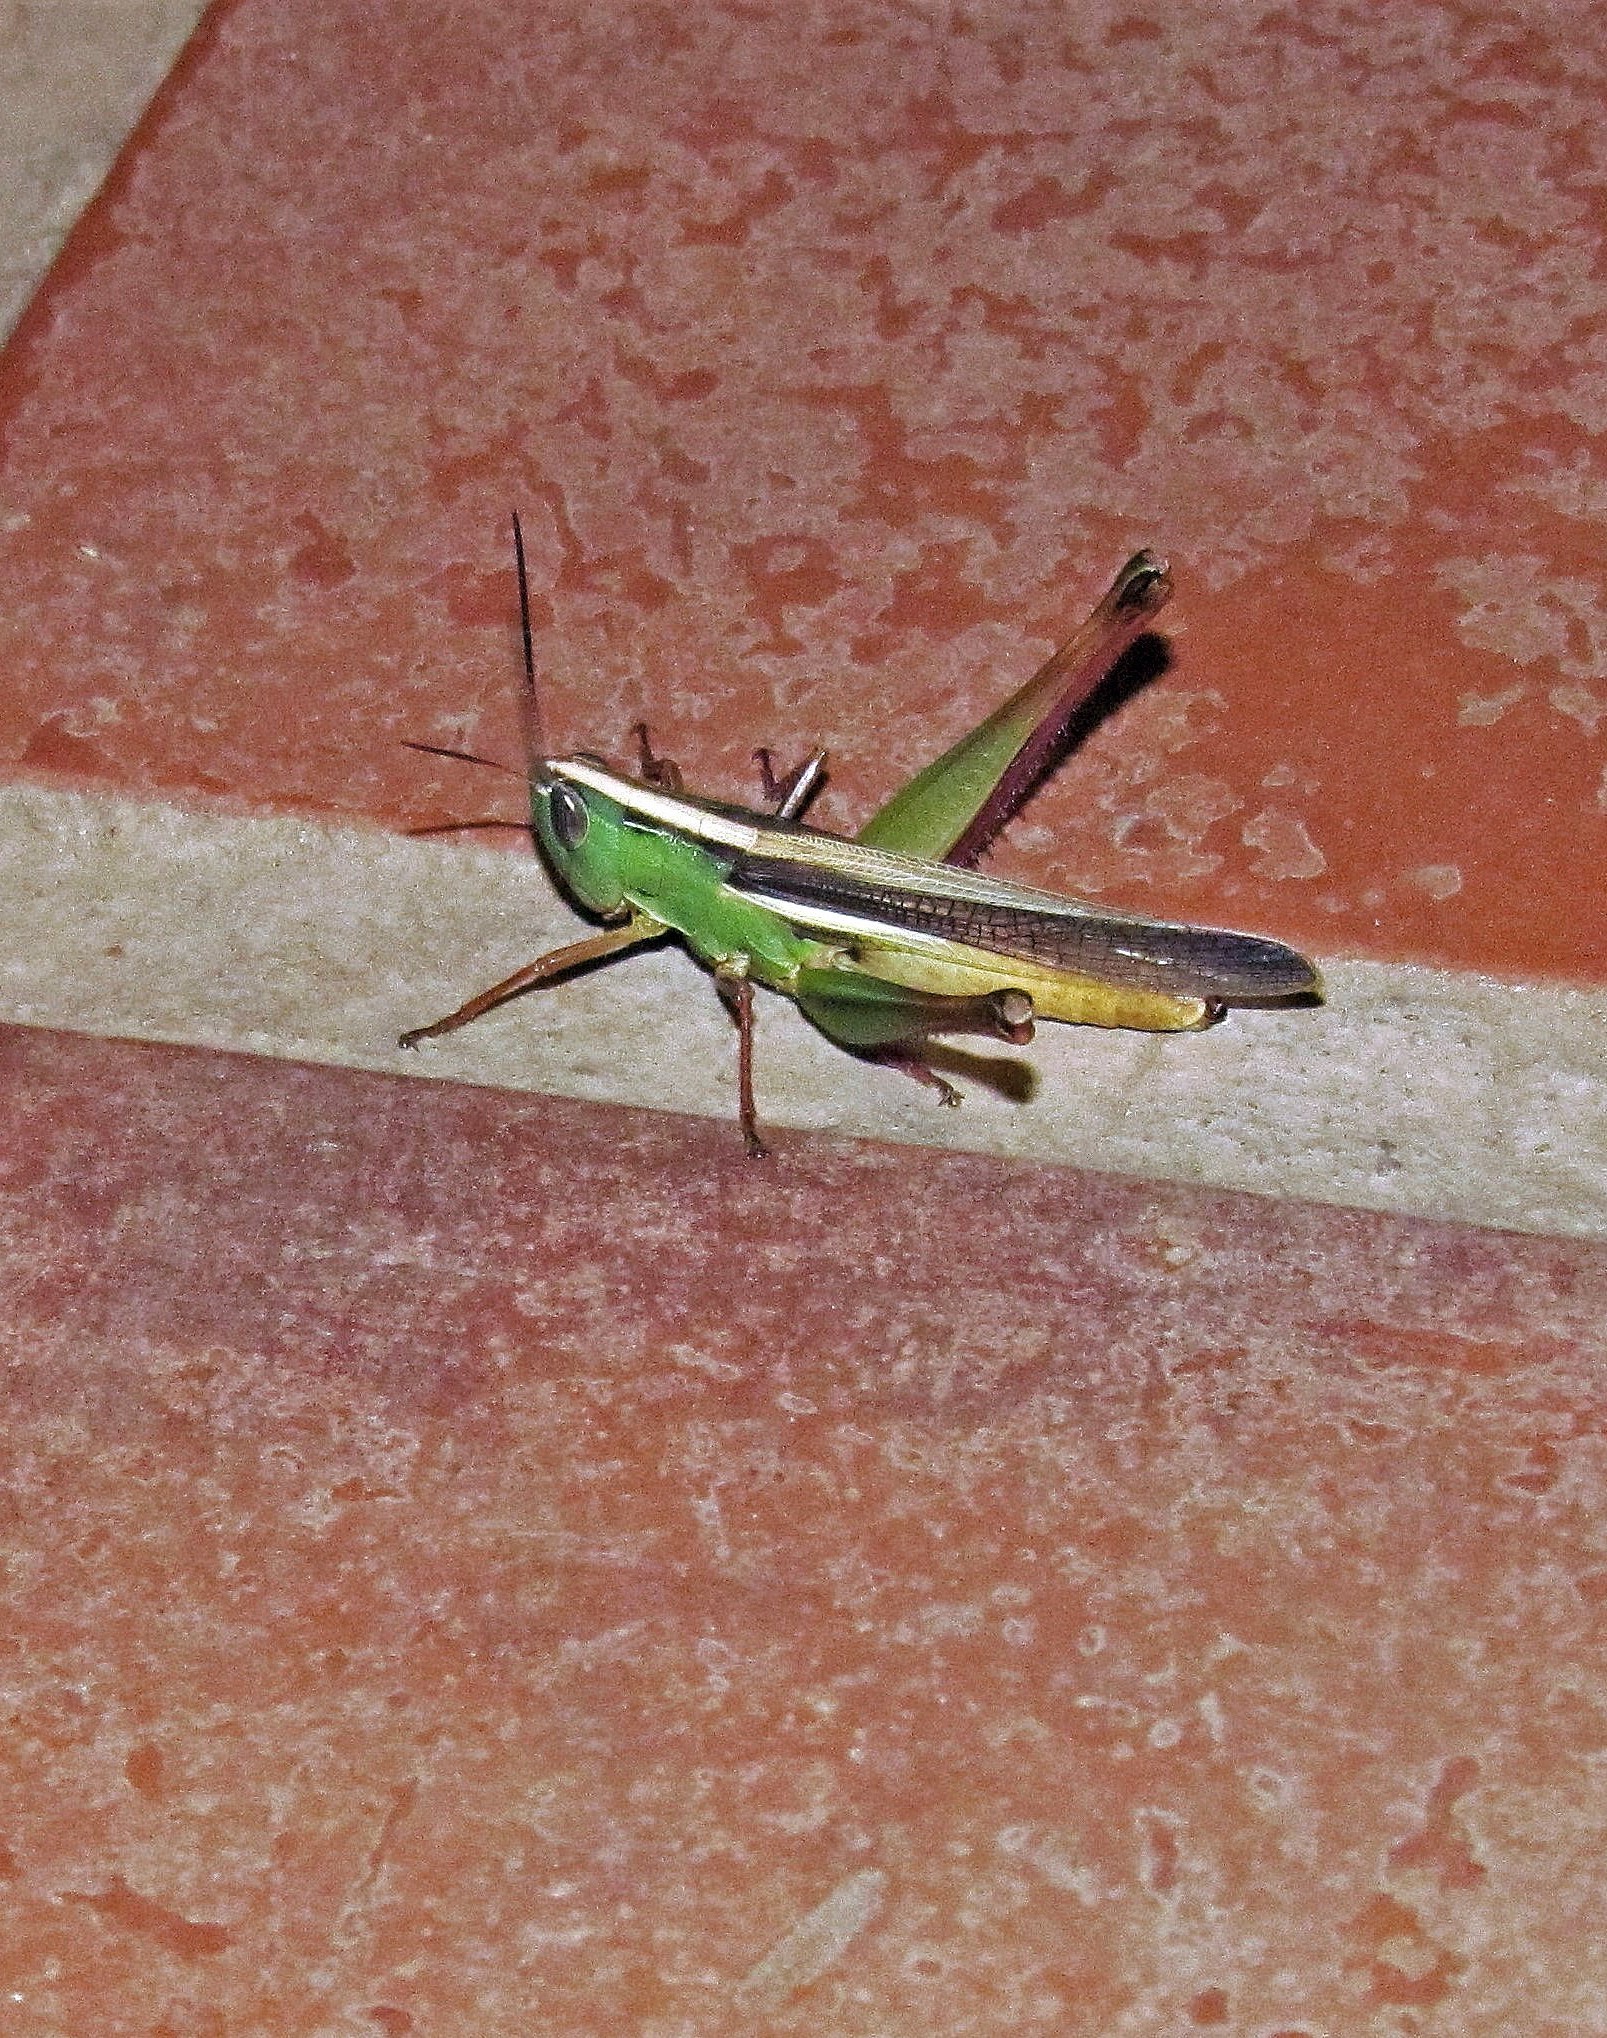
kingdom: Animalia
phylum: Arthropoda
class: Insecta
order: Orthoptera
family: Acrididae
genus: Staurorhectus
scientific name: Staurorhectus longicornis
